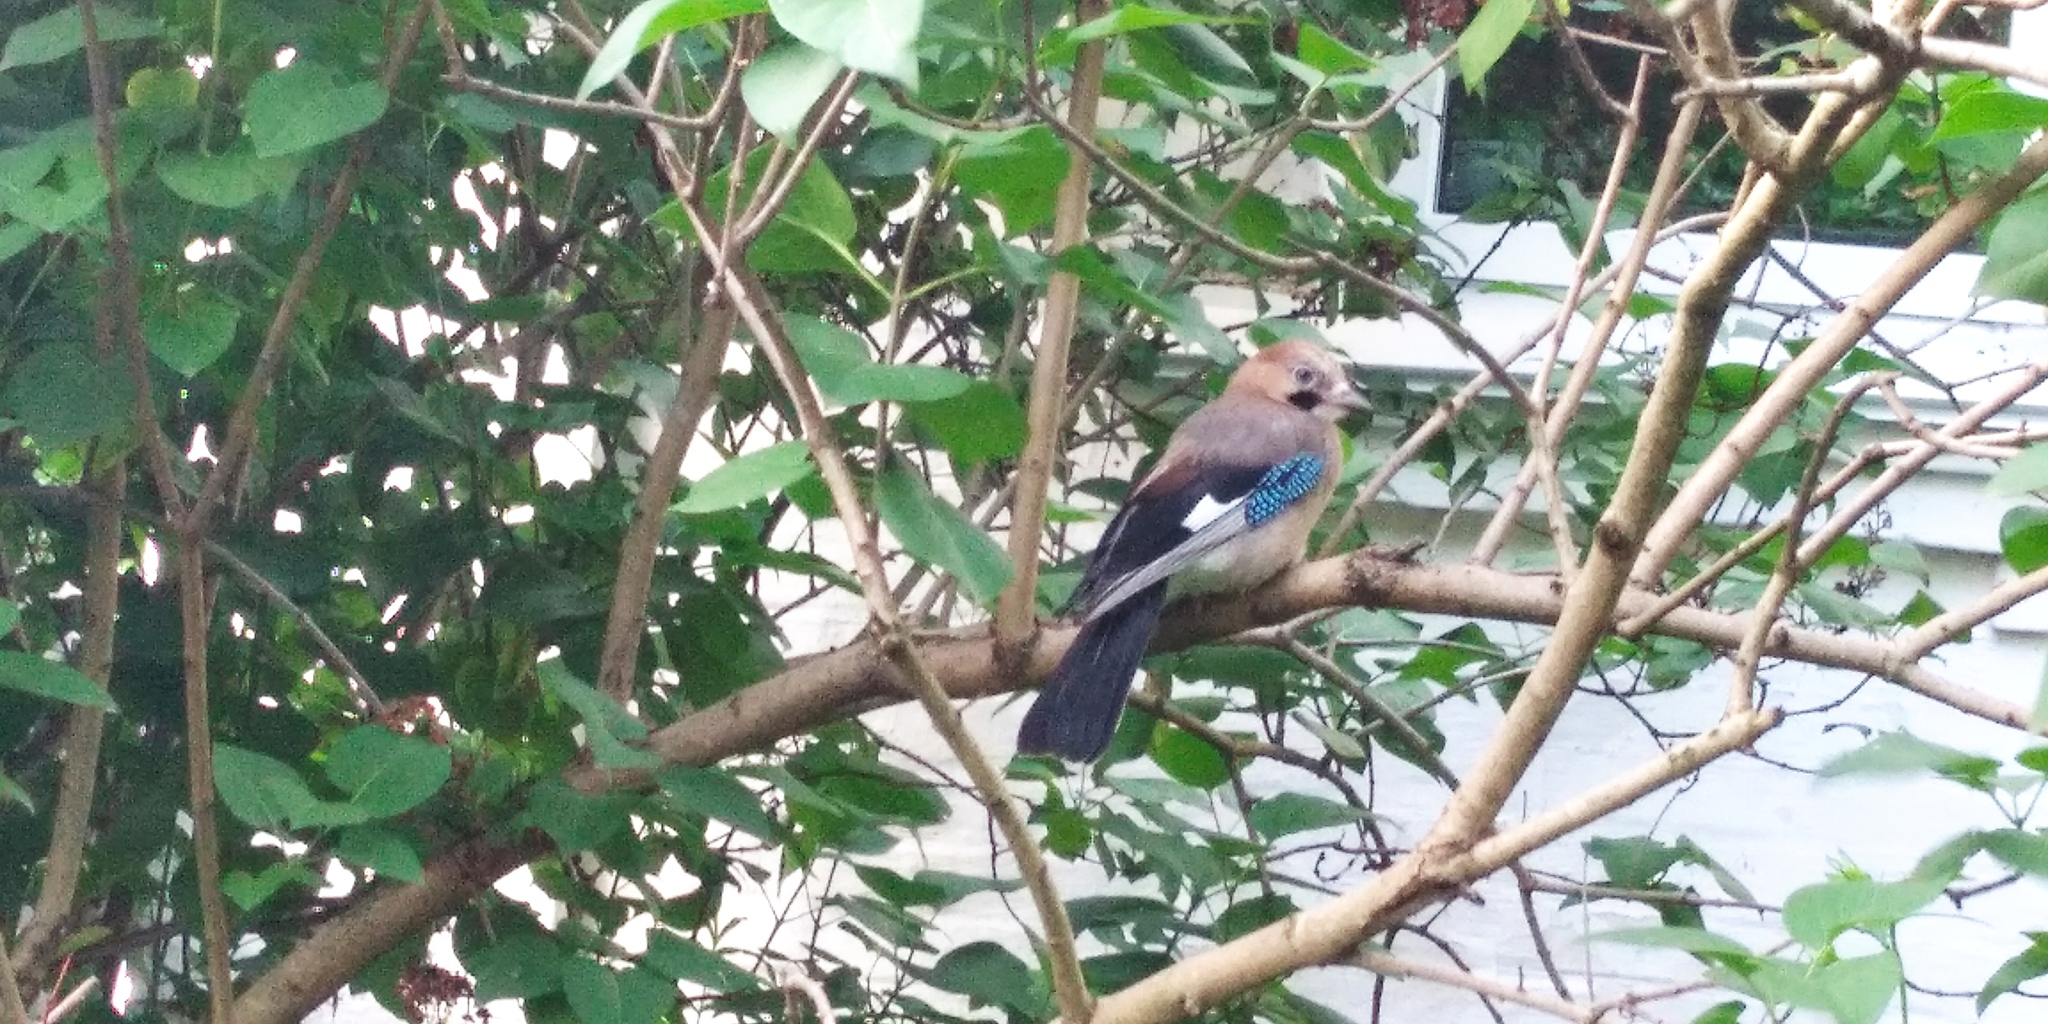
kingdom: Animalia
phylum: Chordata
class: Aves
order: Passeriformes
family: Corvidae
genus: Garrulus
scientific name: Garrulus glandarius
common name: Eurasian jay
